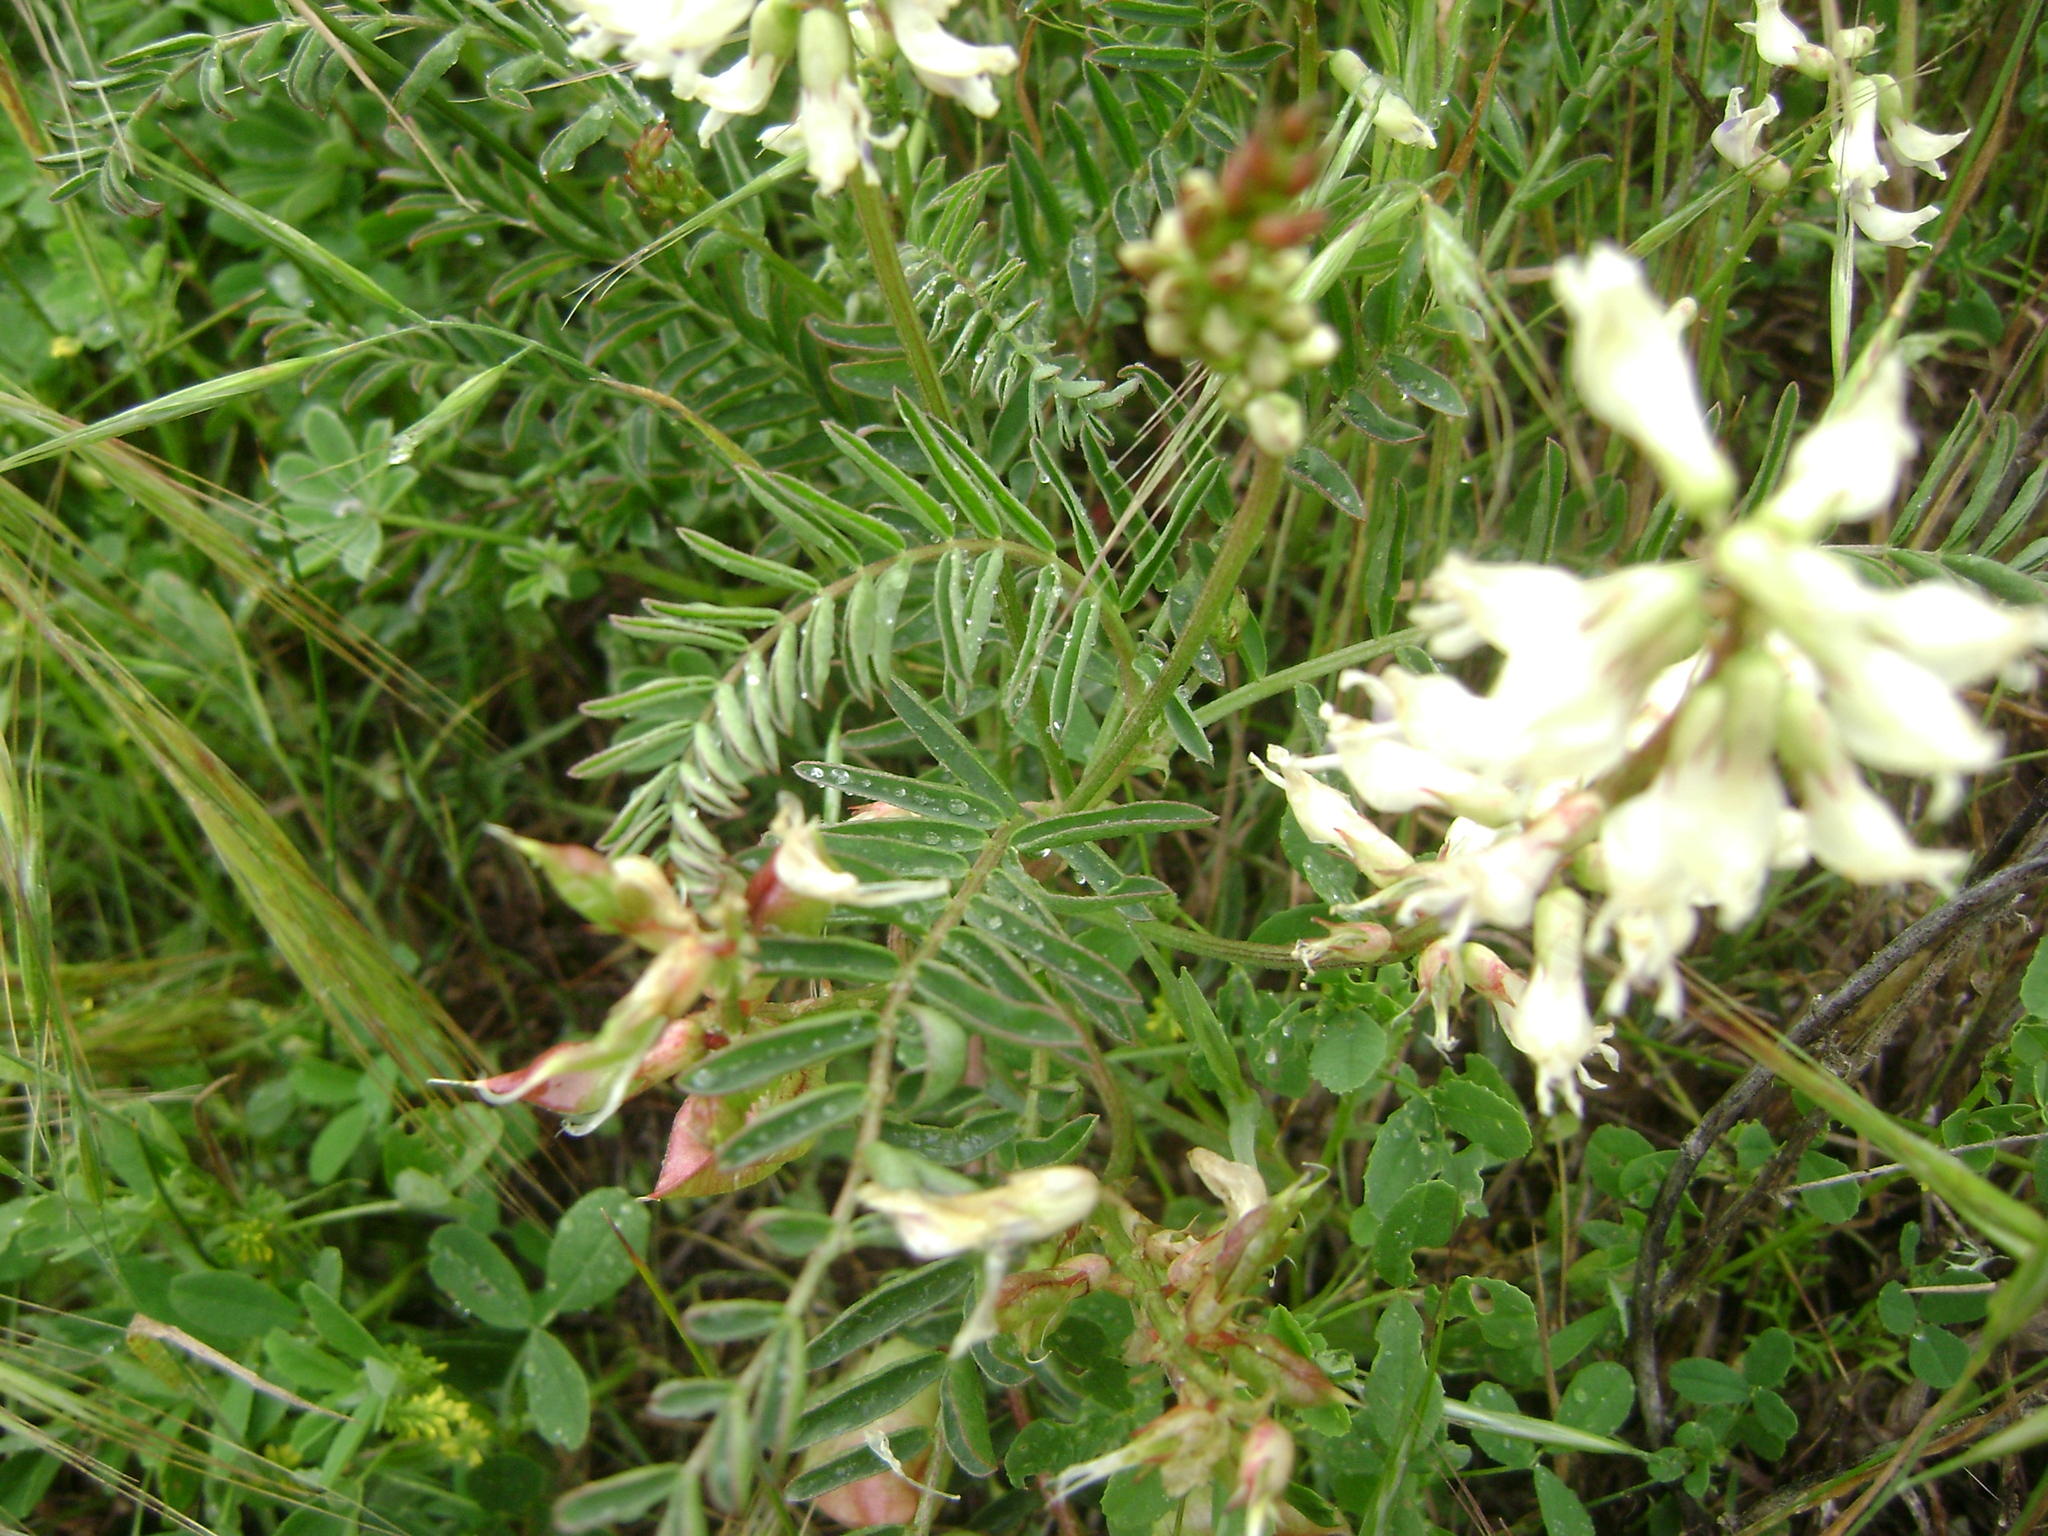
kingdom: Plantae
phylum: Tracheophyta
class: Magnoliopsida
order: Fabales
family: Fabaceae
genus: Astragalus
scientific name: Astragalus trichopodus
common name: Santa barbara milk-vetch
